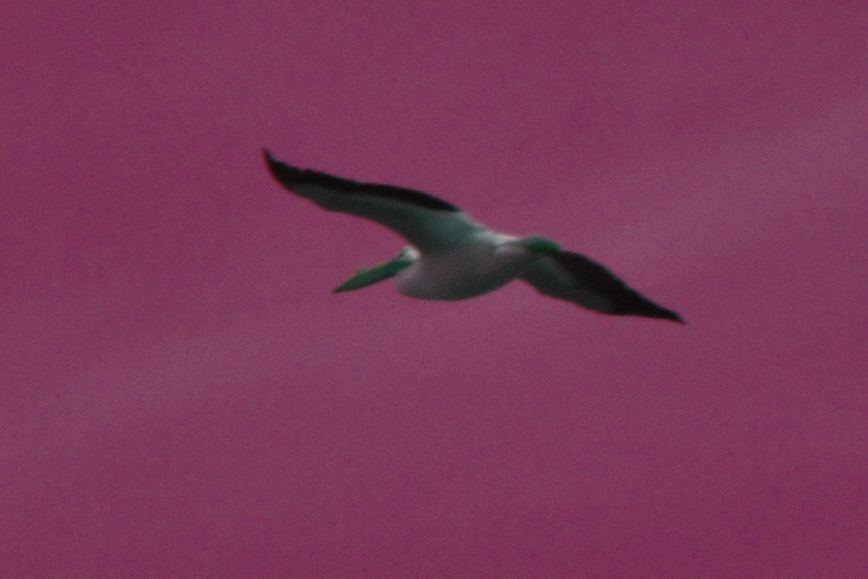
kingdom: Animalia
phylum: Chordata
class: Aves
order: Pelecaniformes
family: Pelecanidae
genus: Pelecanus
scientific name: Pelecanus erythrorhynchos
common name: American white pelican
